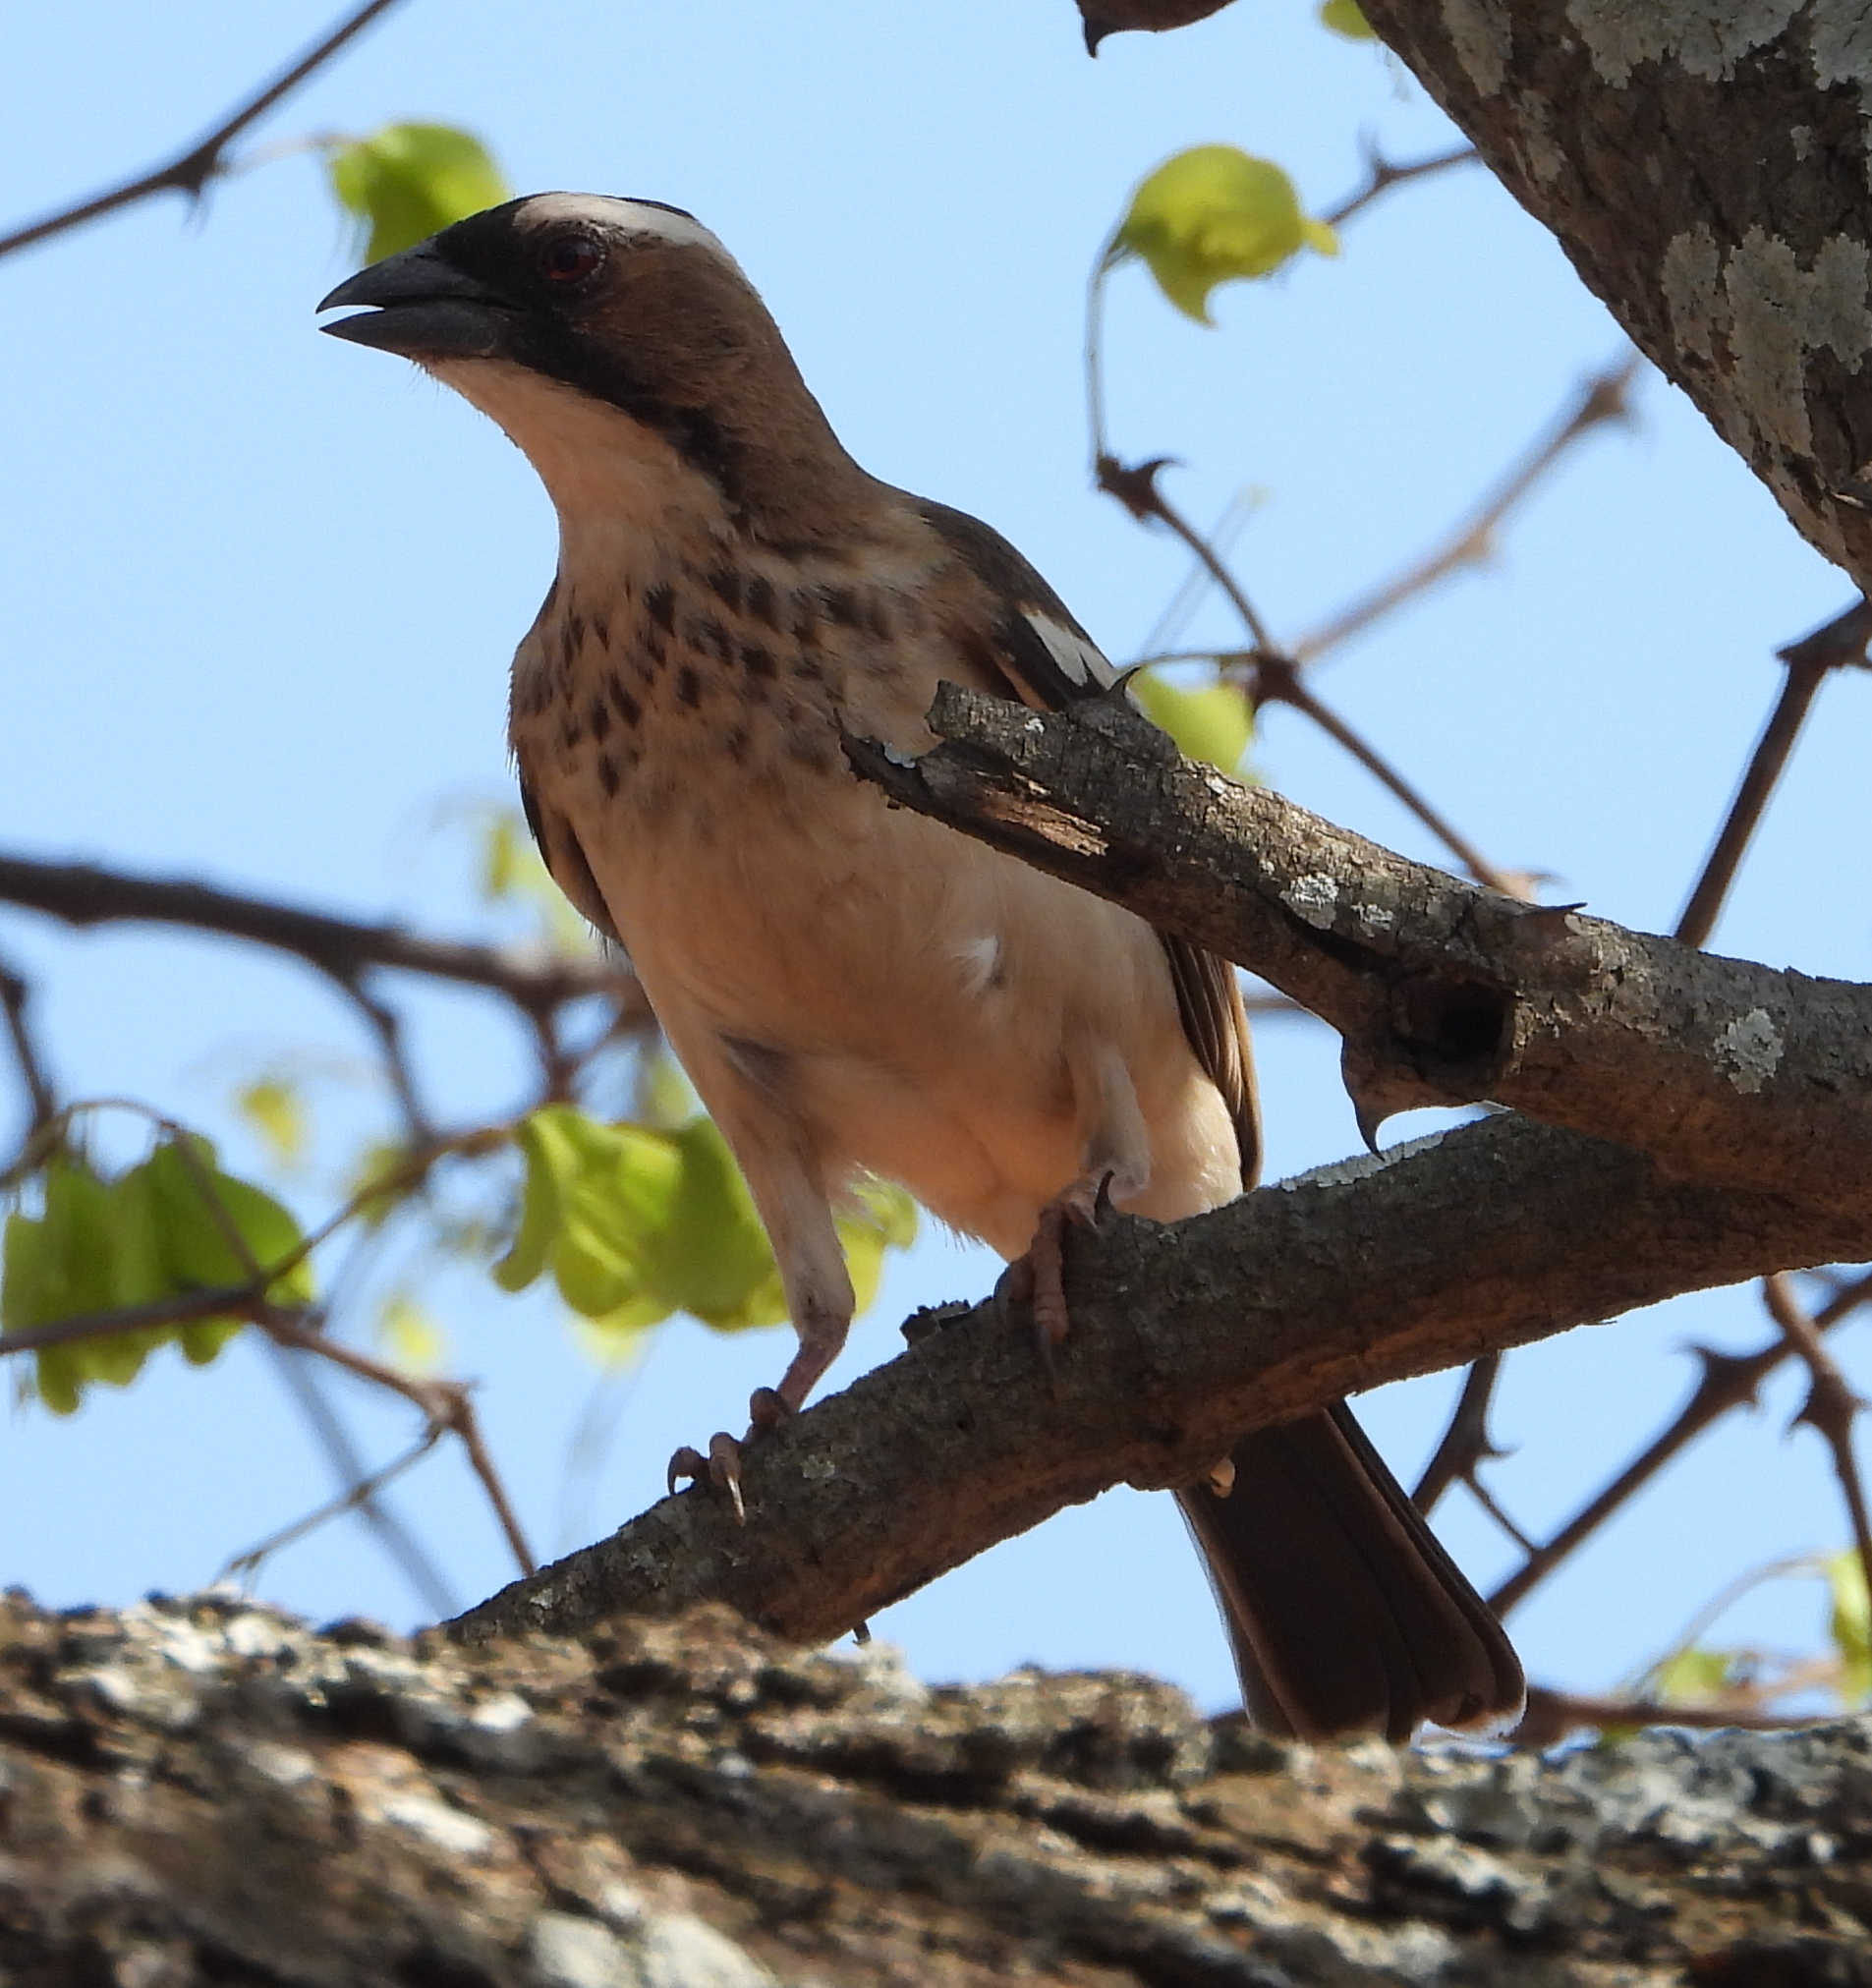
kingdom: Animalia
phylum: Chordata
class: Aves
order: Passeriformes
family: Passeridae
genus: Plocepasser
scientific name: Plocepasser mahali
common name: White-browed sparrow-weaver
